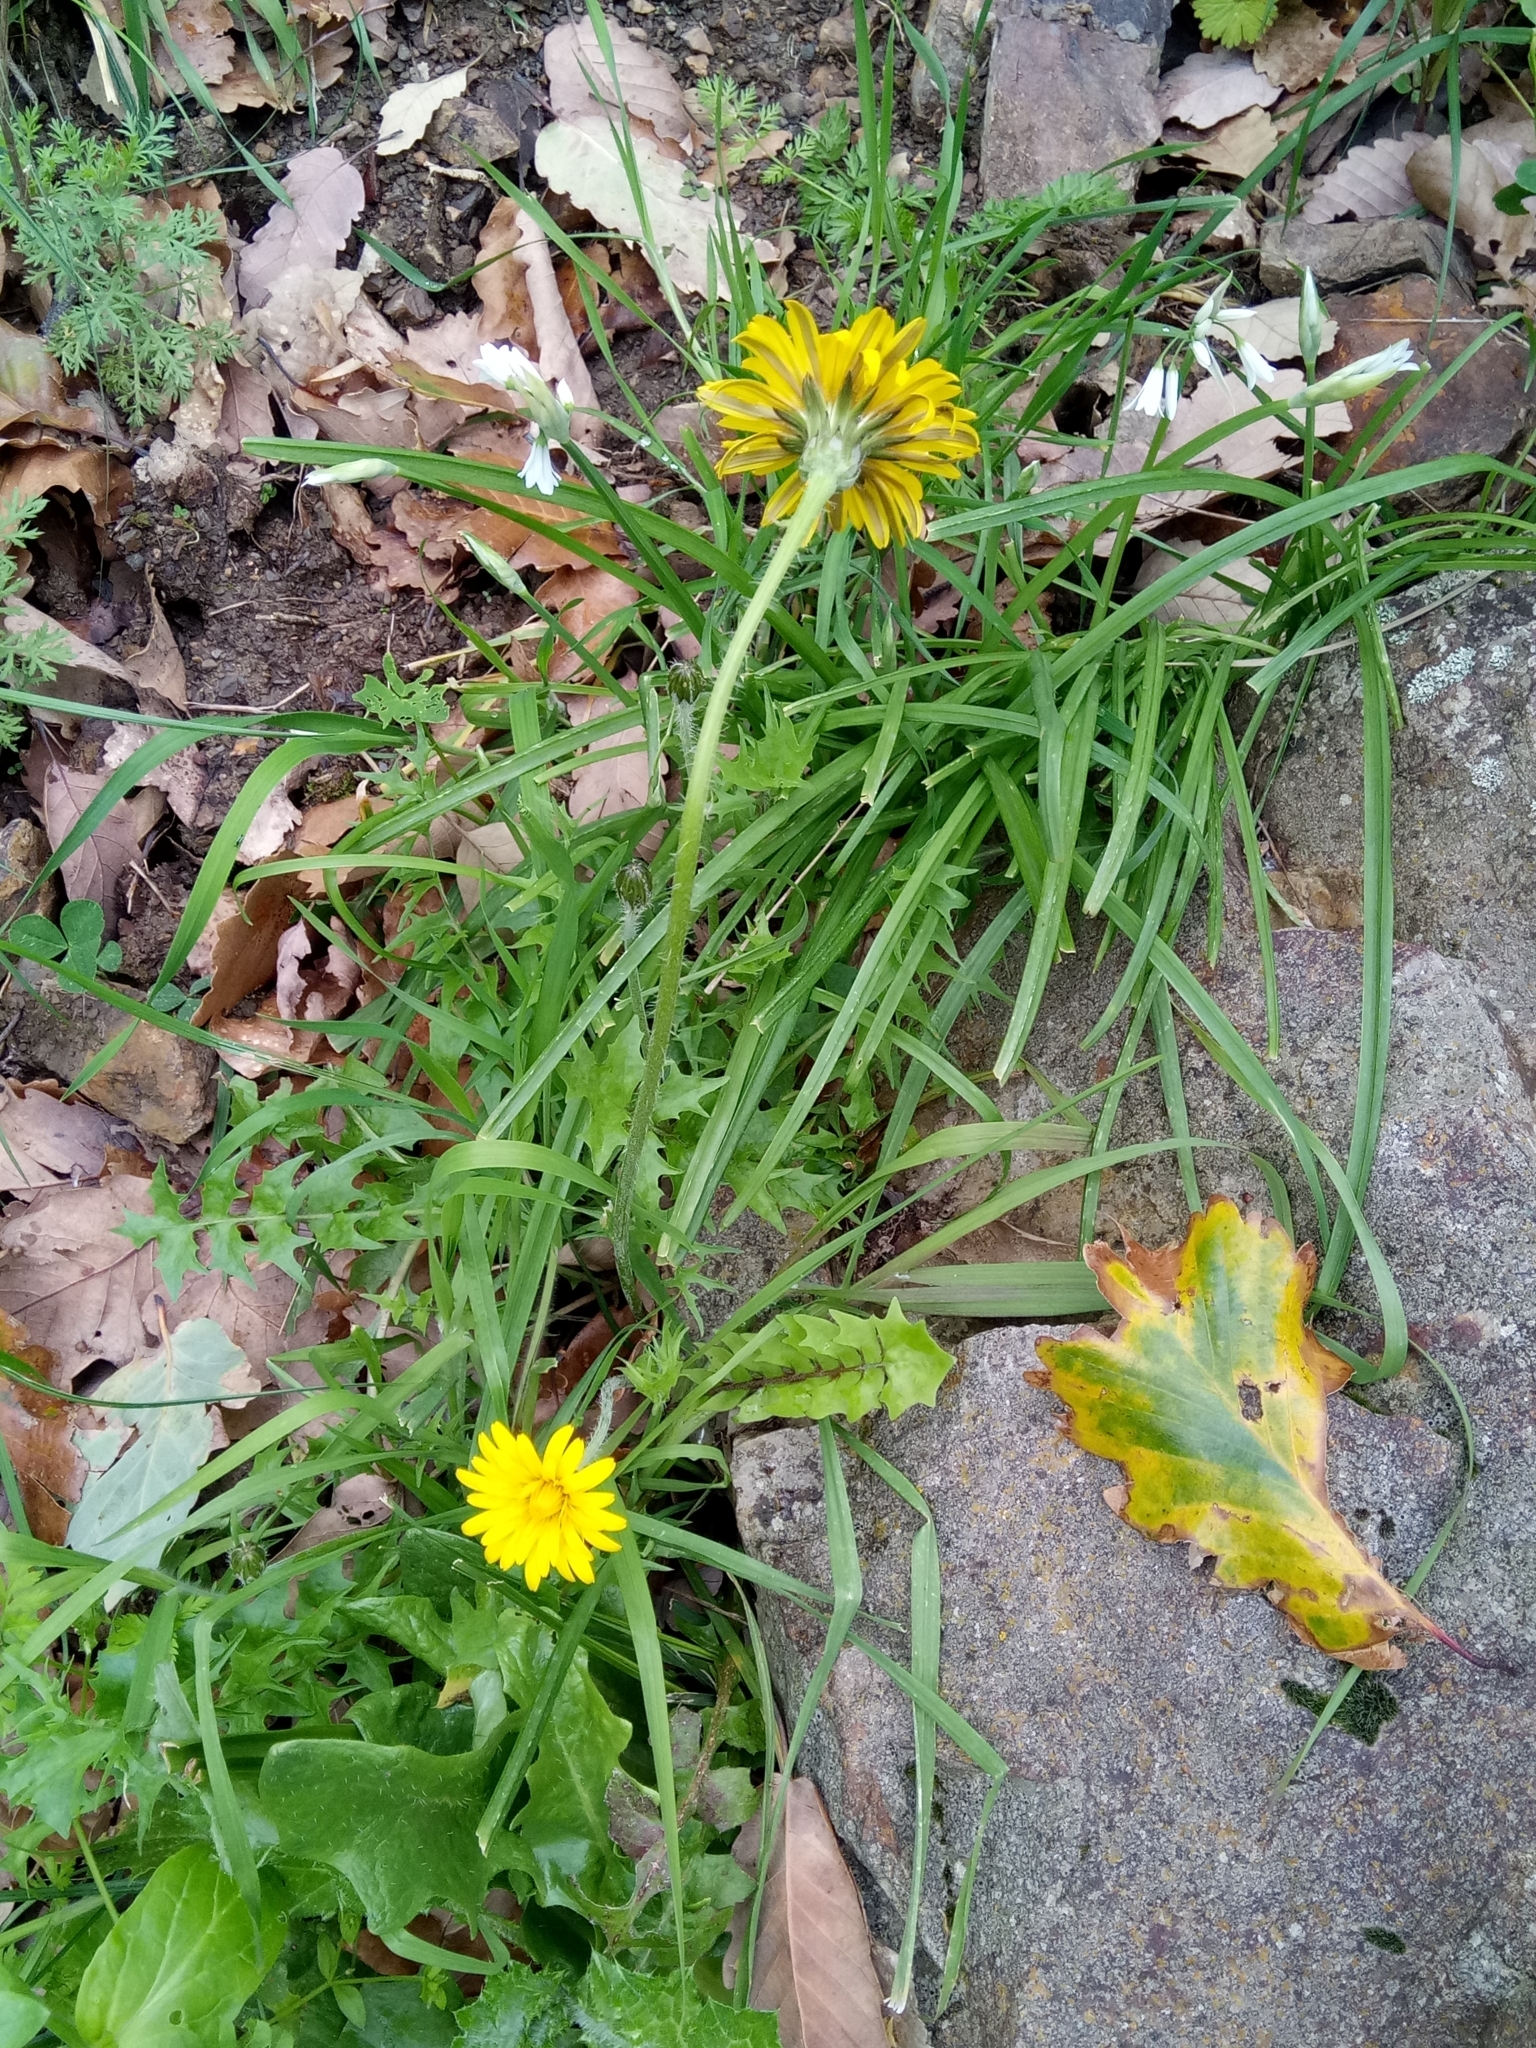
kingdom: Plantae
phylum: Tracheophyta
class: Magnoliopsida
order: Asterales
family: Asteraceae
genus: Hyoseris
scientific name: Hyoseris radiata
